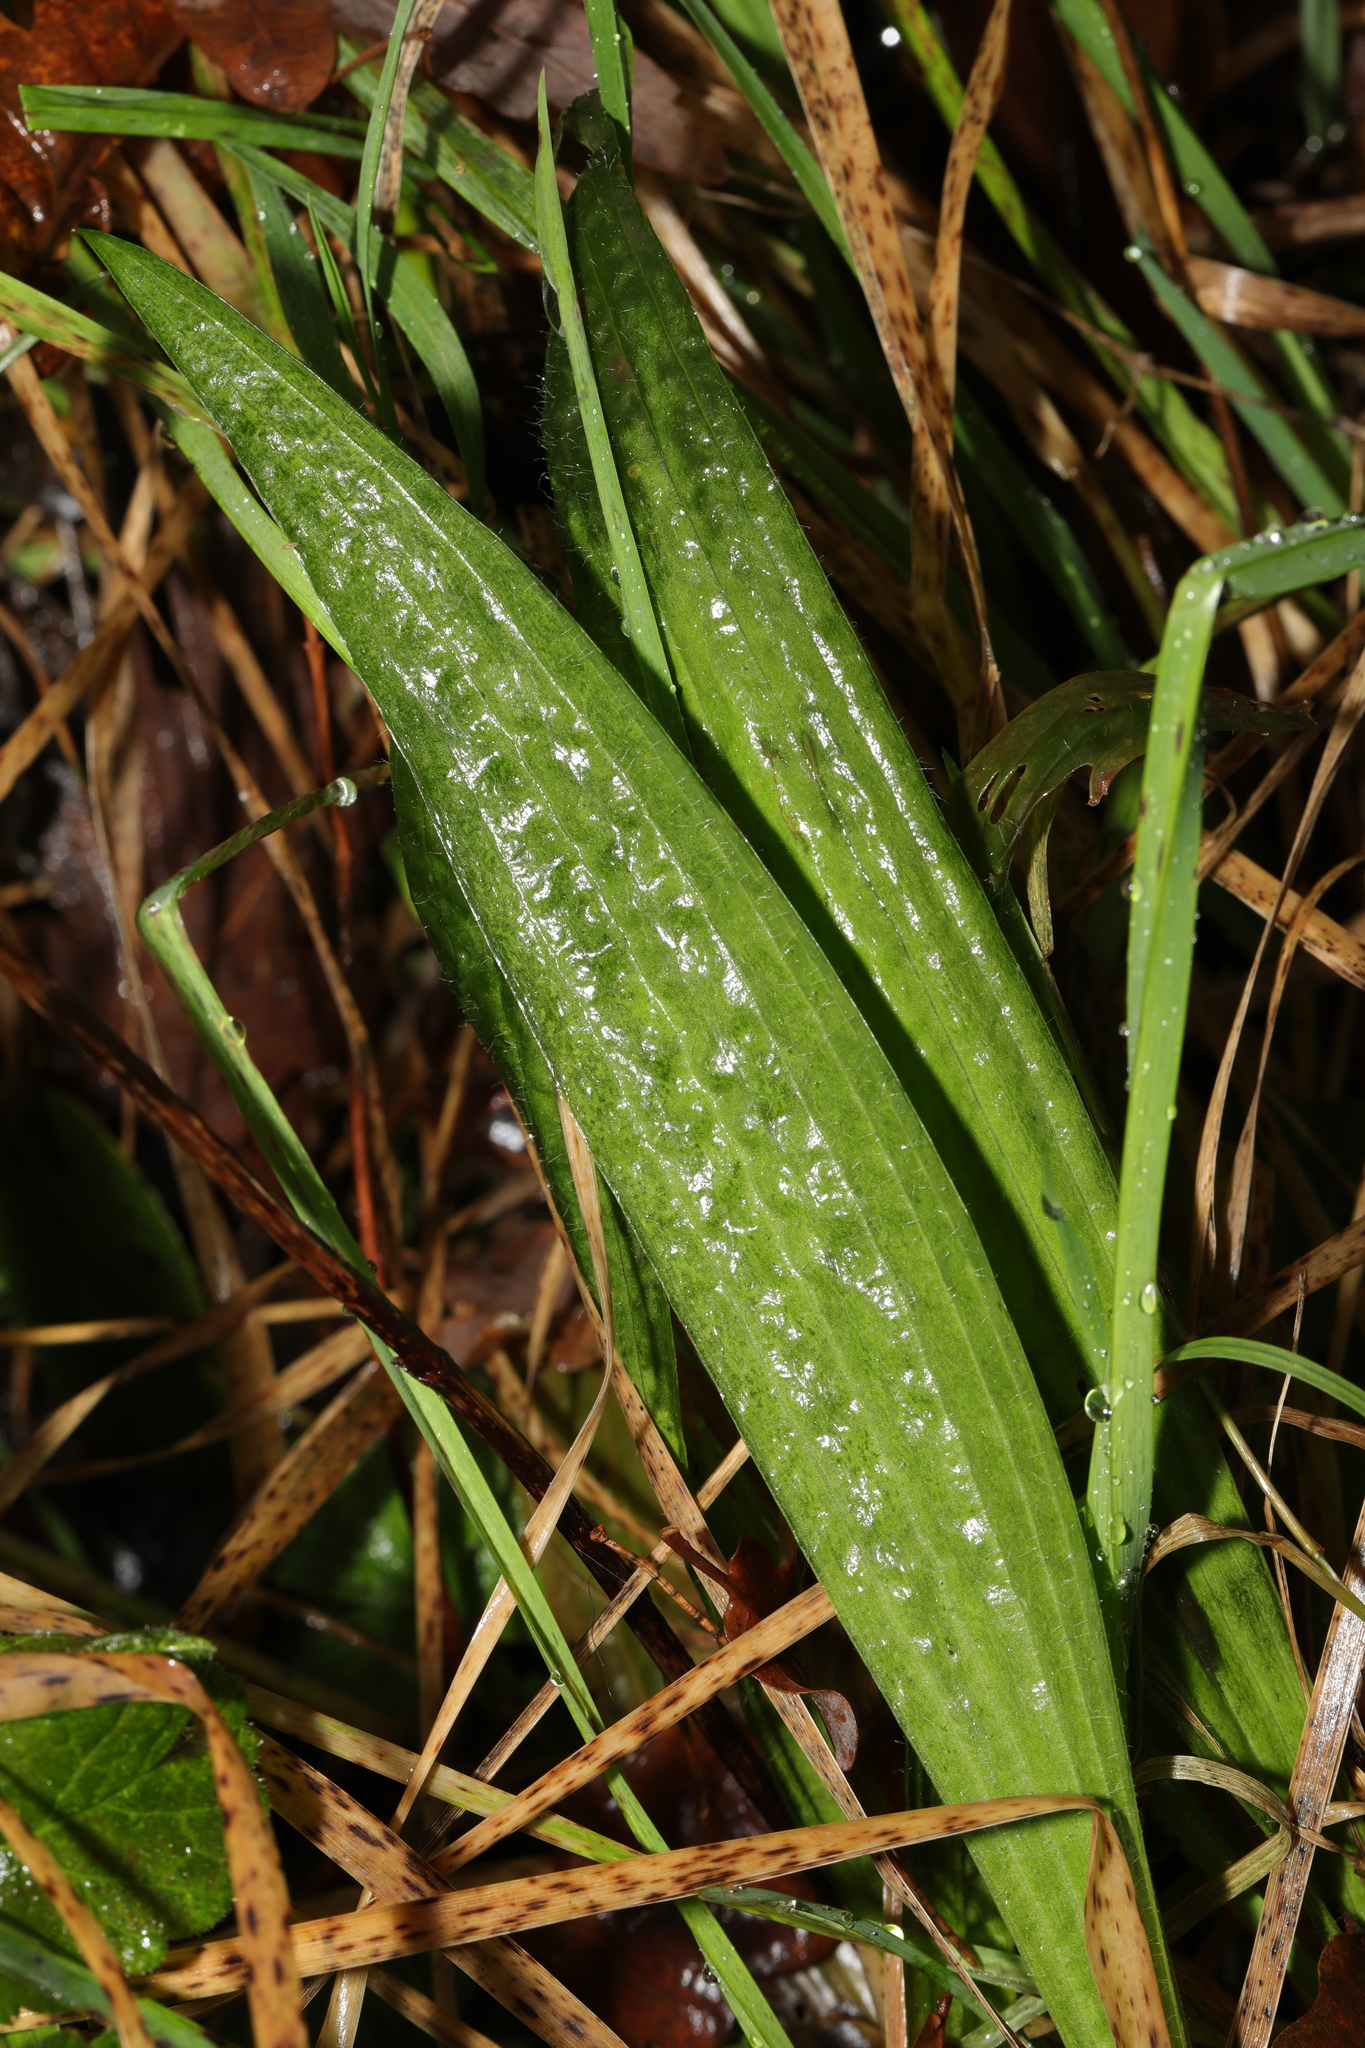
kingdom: Plantae
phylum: Tracheophyta
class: Magnoliopsida
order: Lamiales
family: Plantaginaceae
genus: Plantago
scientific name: Plantago lanceolata
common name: Ribwort plantain
